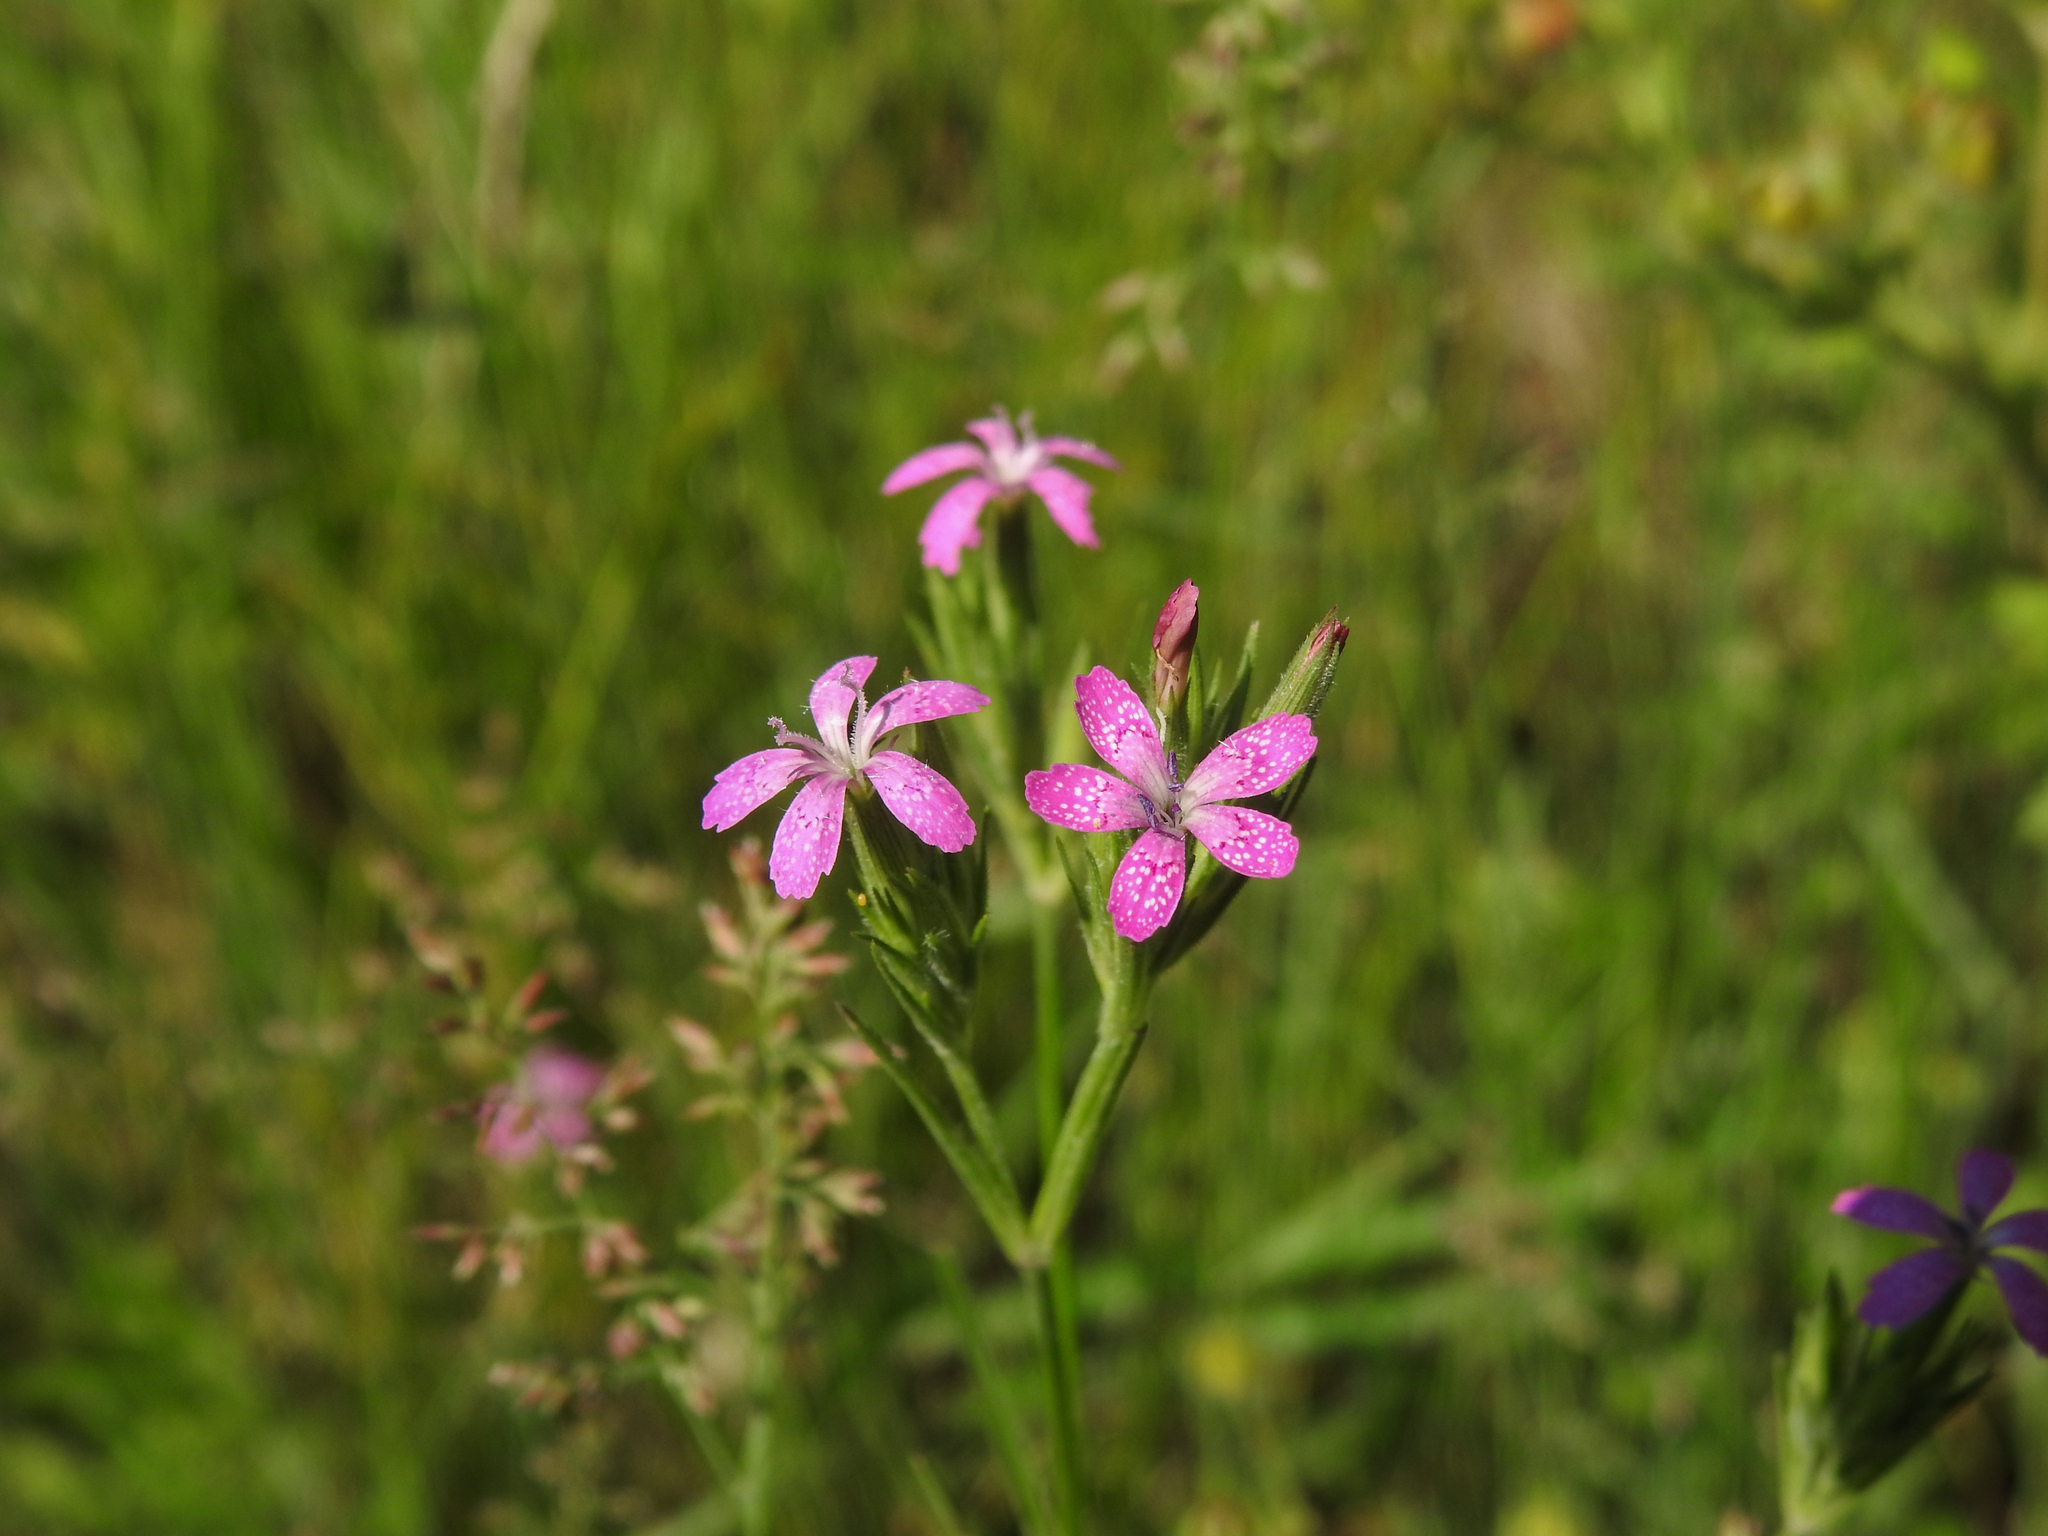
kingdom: Plantae
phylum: Tracheophyta
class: Magnoliopsida
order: Caryophyllales
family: Caryophyllaceae
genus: Dianthus
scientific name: Dianthus armeria
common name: Deptford pink
